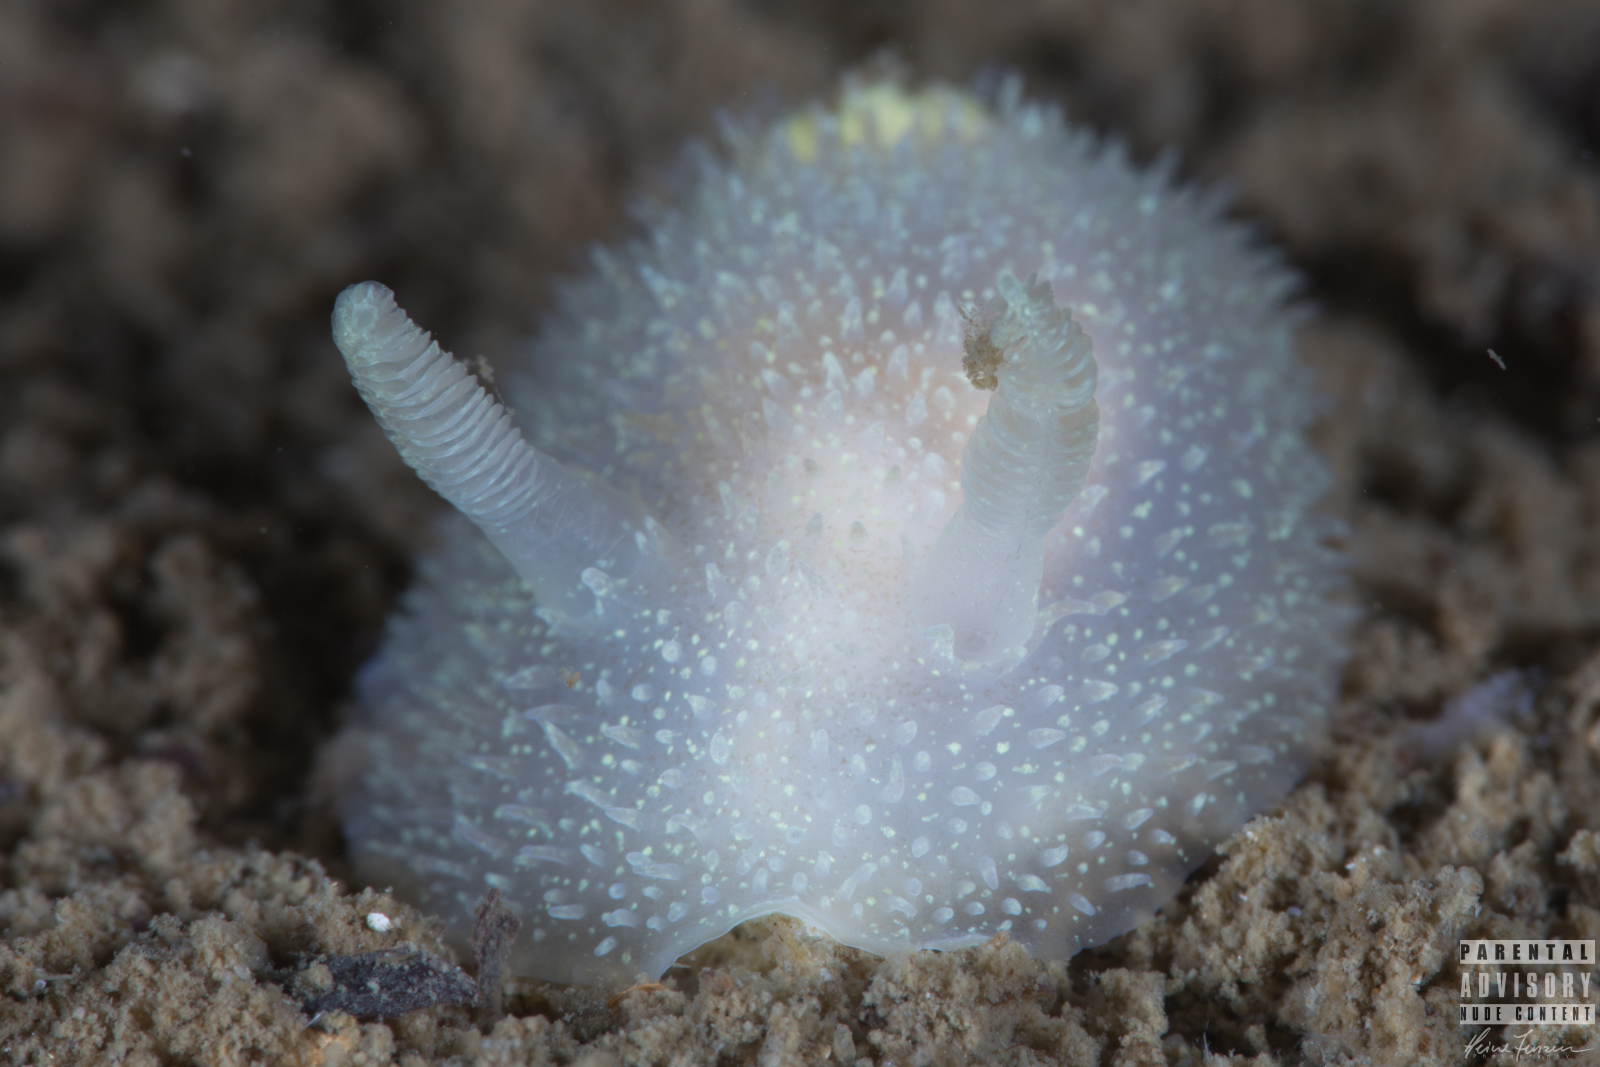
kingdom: Animalia
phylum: Mollusca
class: Gastropoda
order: Nudibranchia
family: Onchidorididae
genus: Acanthodoris
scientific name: Acanthodoris pilosa
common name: Hairy spiny doris
